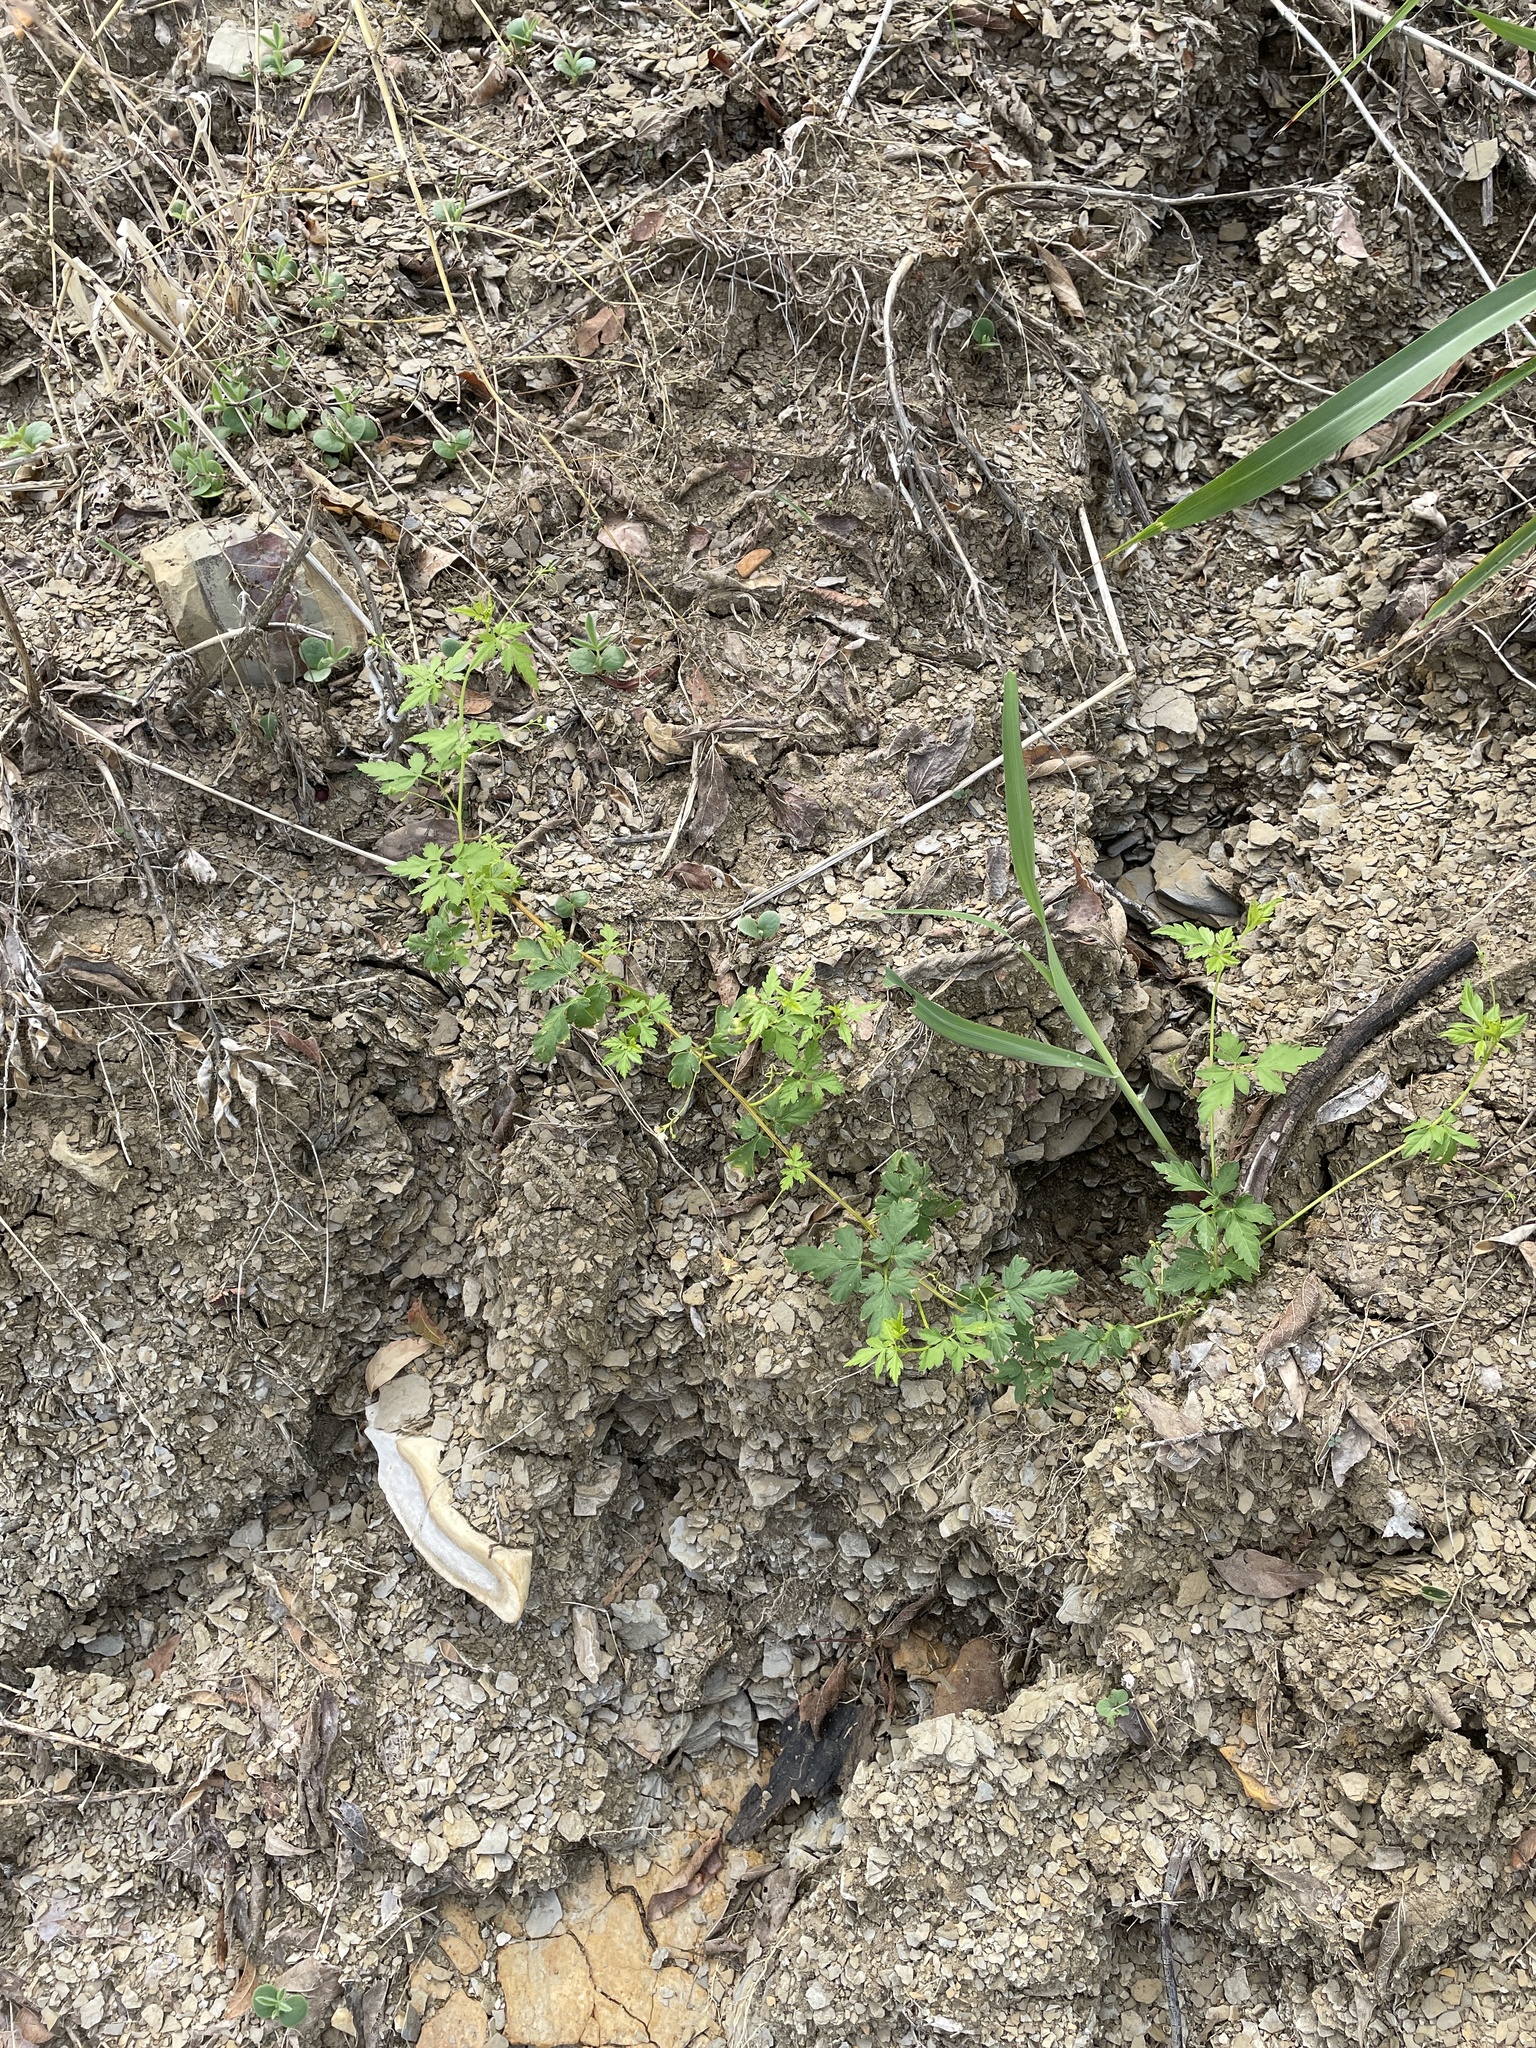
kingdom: Plantae
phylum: Tracheophyta
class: Magnoliopsida
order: Sapindales
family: Sapindaceae
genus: Cardiospermum
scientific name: Cardiospermum halicacabum
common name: Balloon vine
